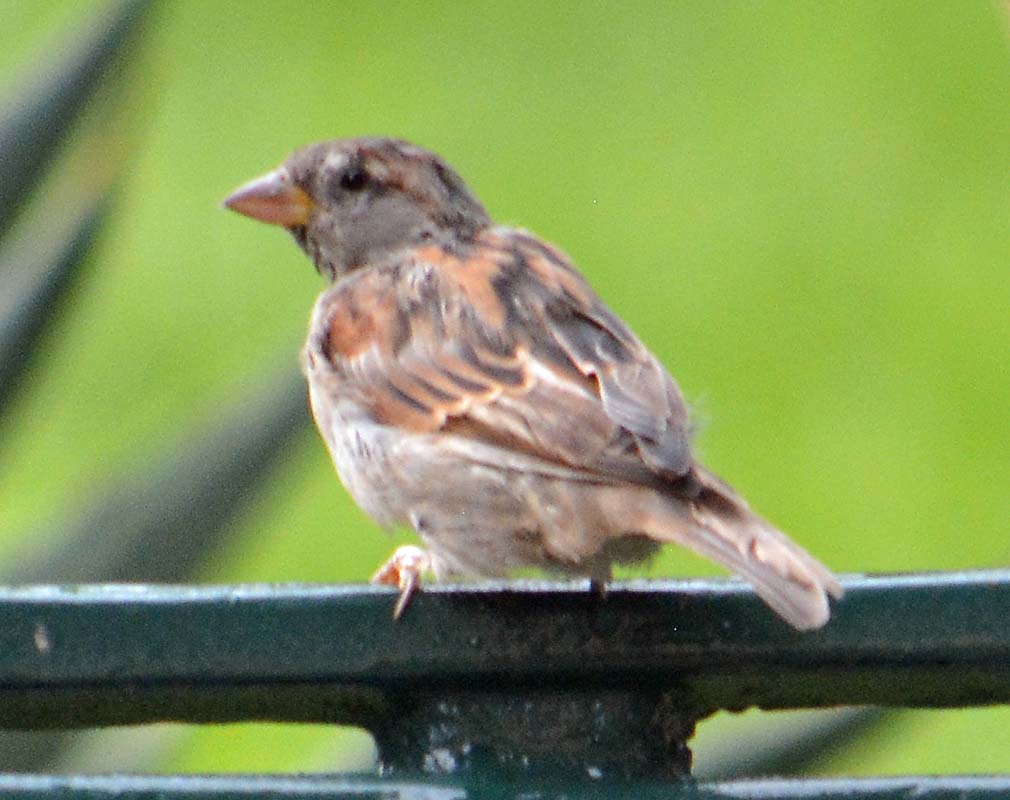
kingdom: Animalia
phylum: Chordata
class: Aves
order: Passeriformes
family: Passeridae
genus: Passer
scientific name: Passer domesticus
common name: House sparrow
